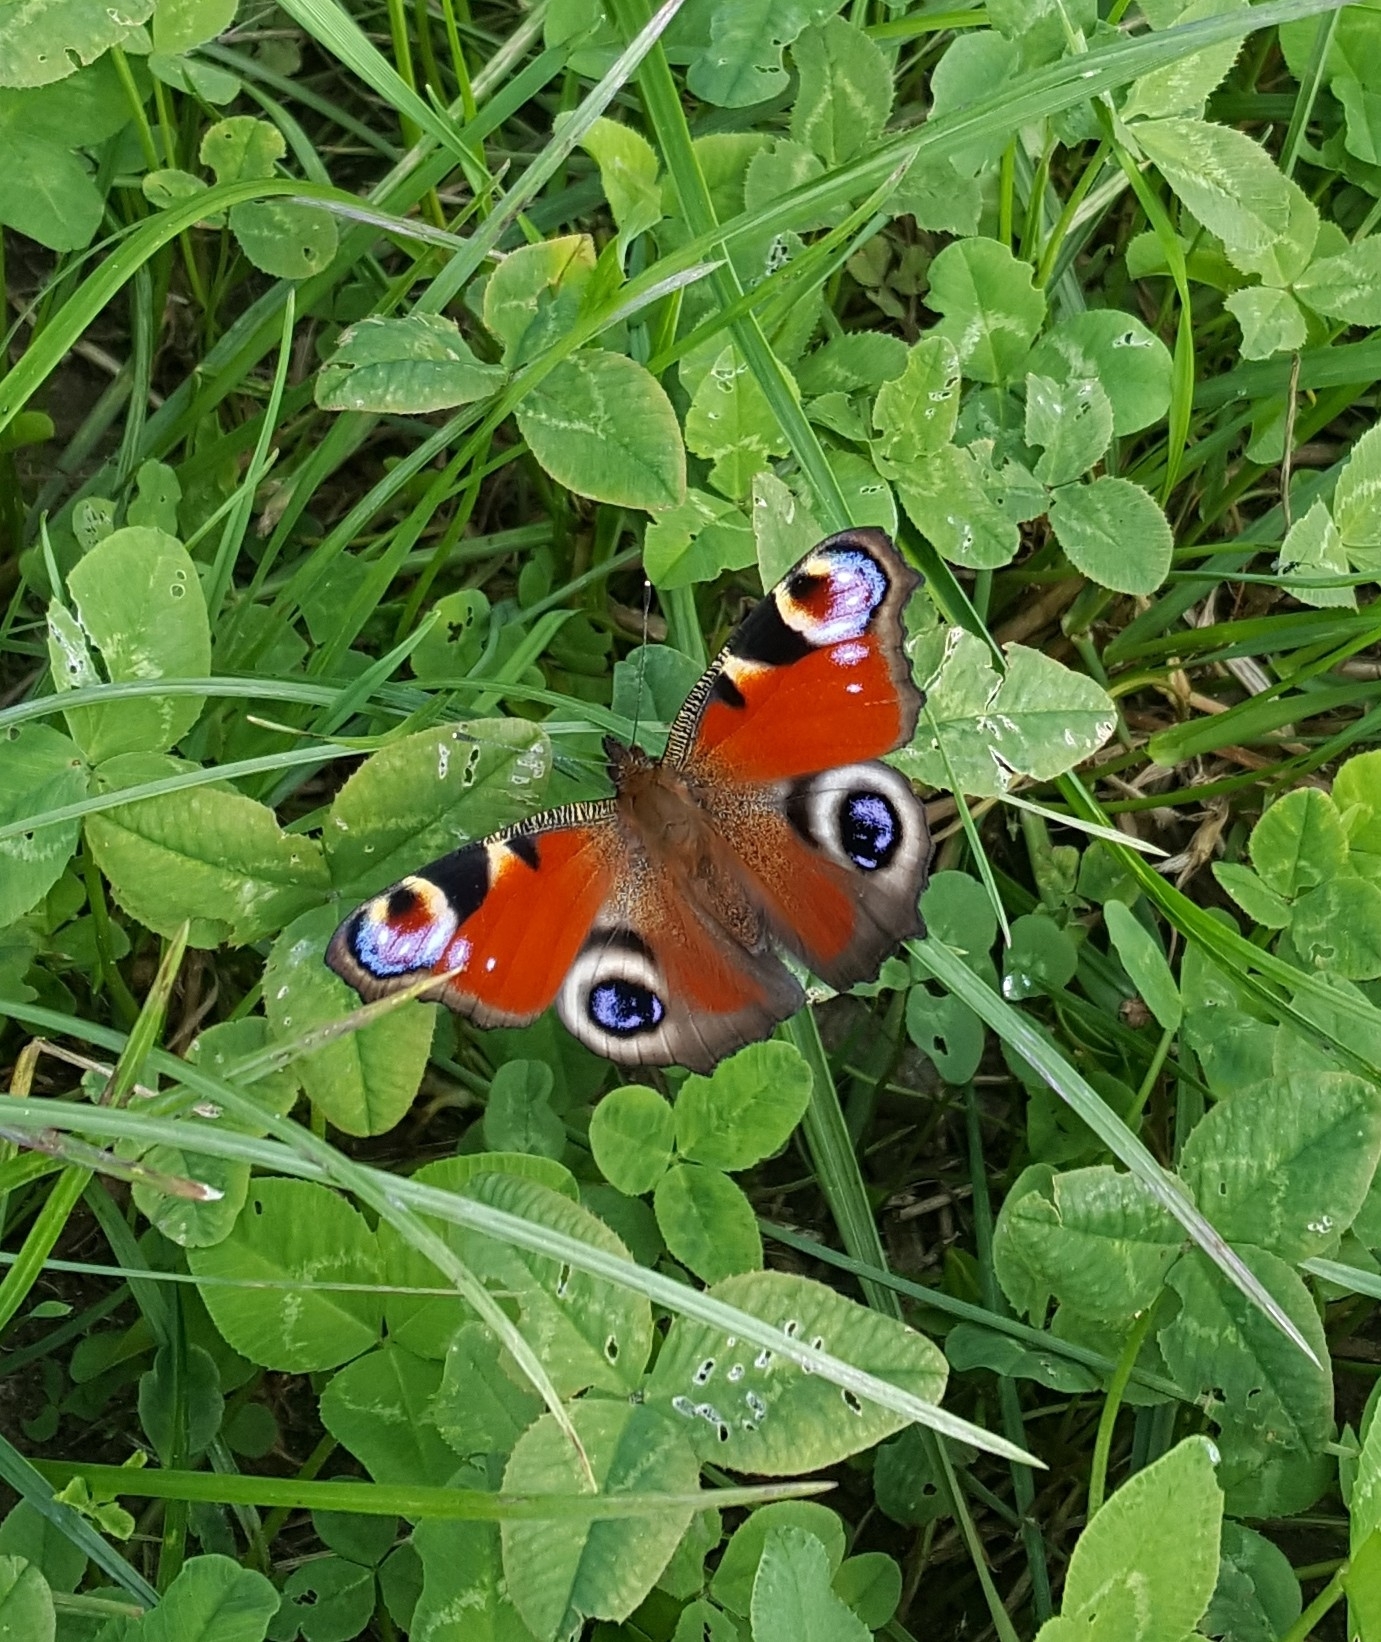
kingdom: Animalia
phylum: Arthropoda
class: Insecta
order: Lepidoptera
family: Nymphalidae
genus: Aglais
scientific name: Aglais io
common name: Peacock
